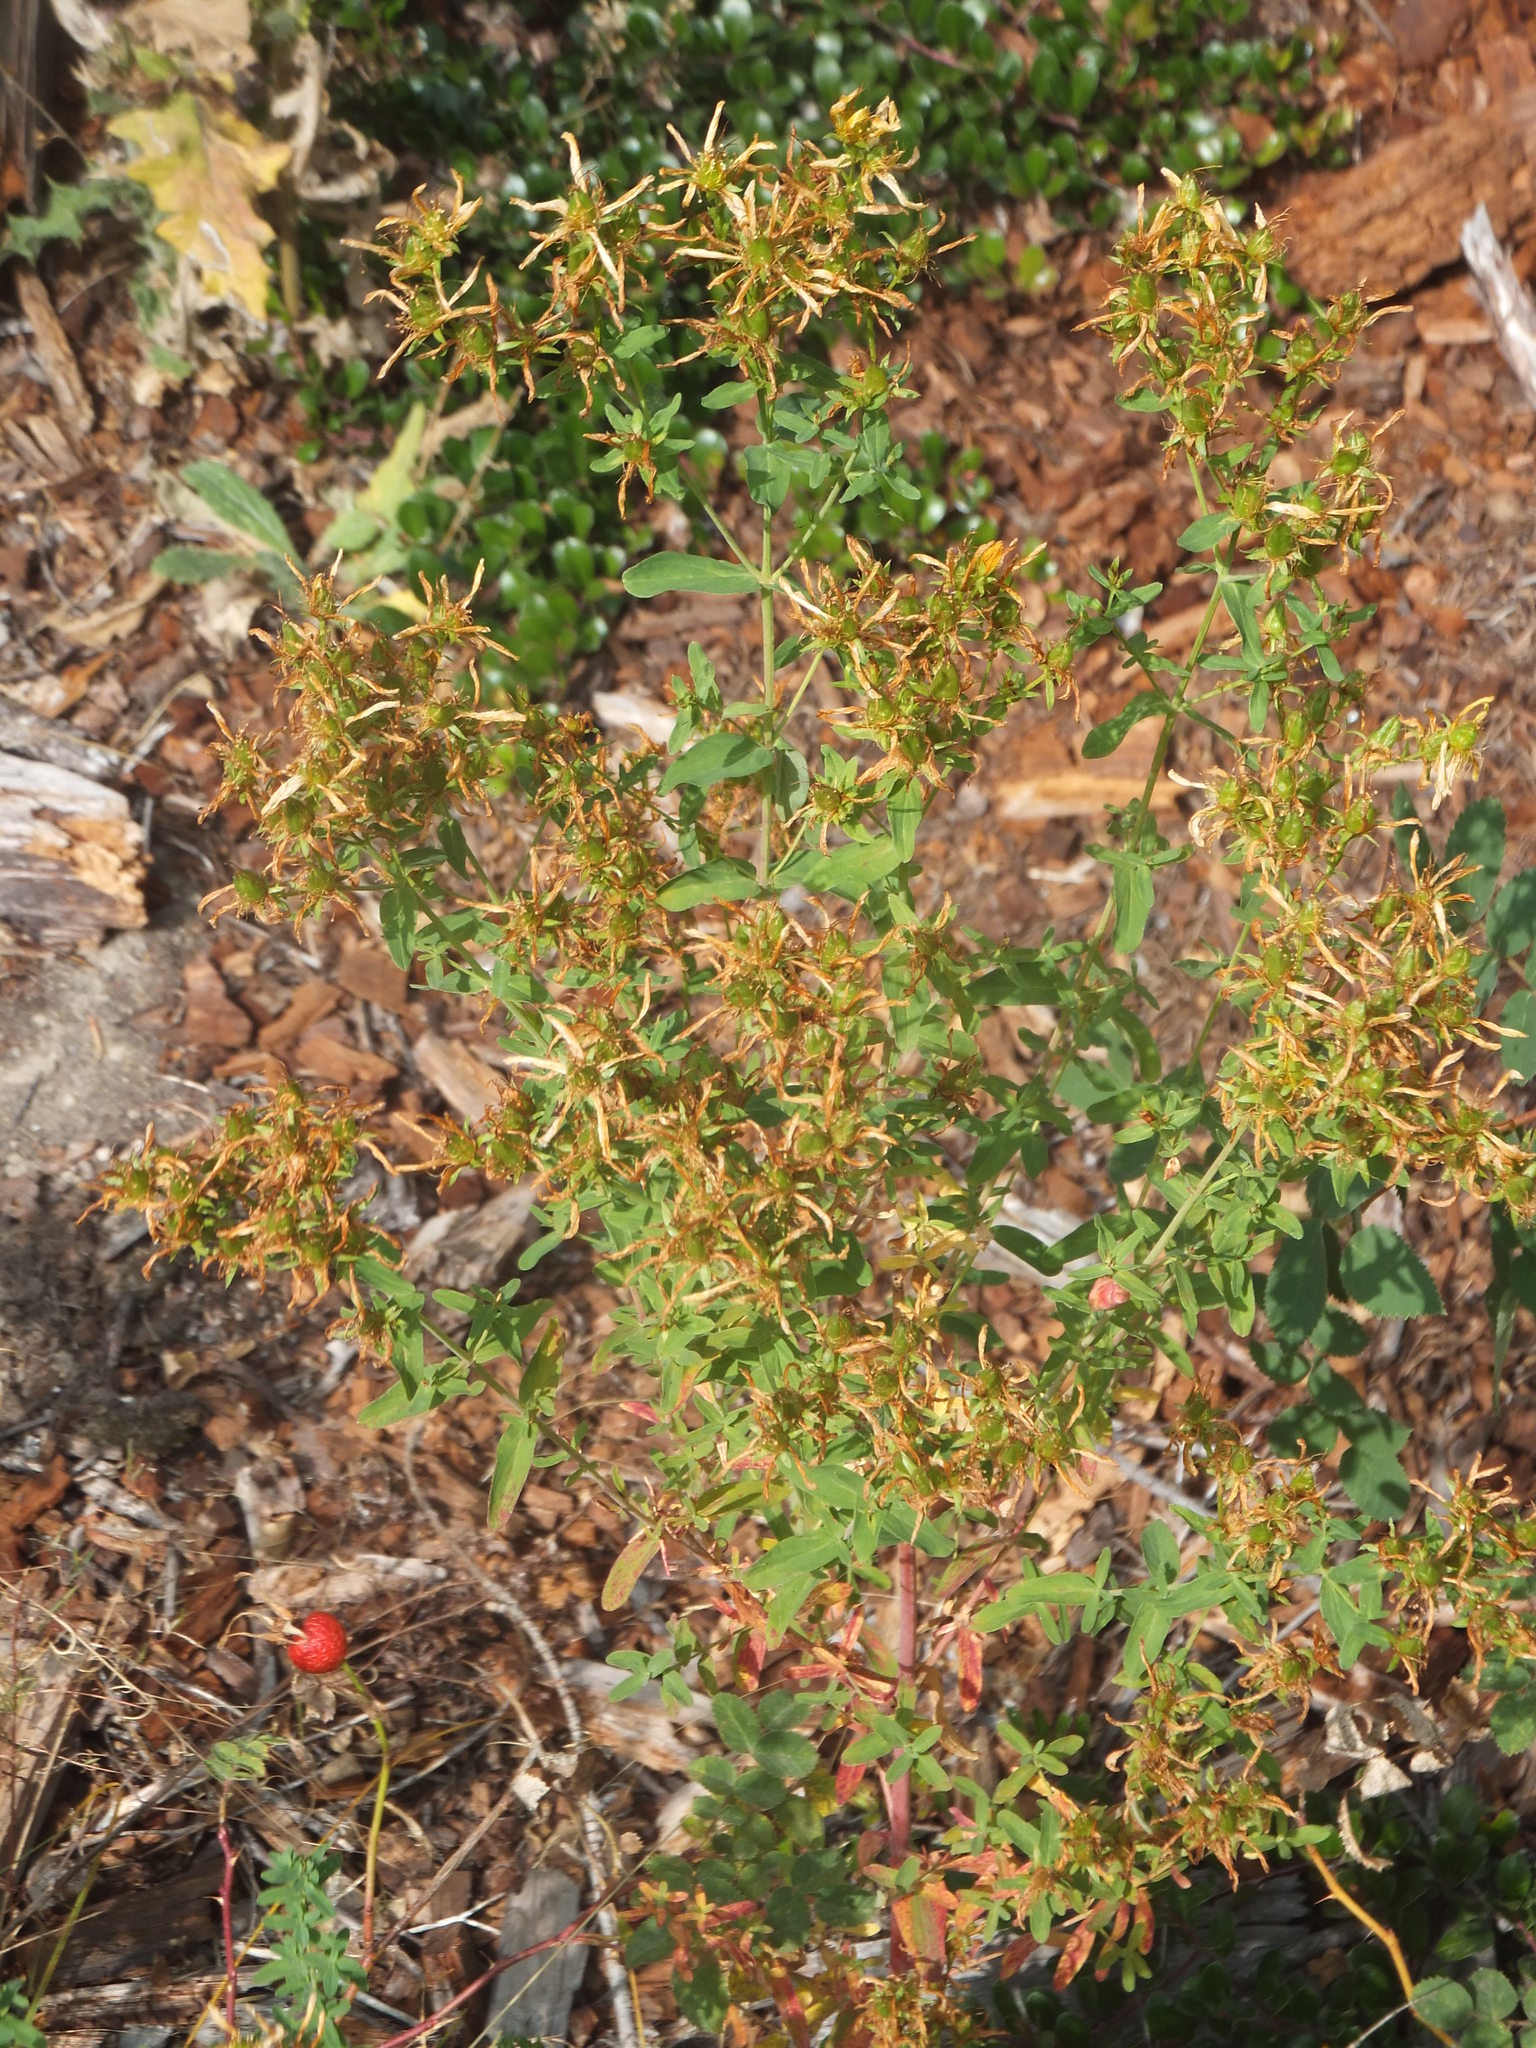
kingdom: Plantae
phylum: Tracheophyta
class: Magnoliopsida
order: Malpighiales
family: Hypericaceae
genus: Hypericum
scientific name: Hypericum perforatum
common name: Common st. johnswort
